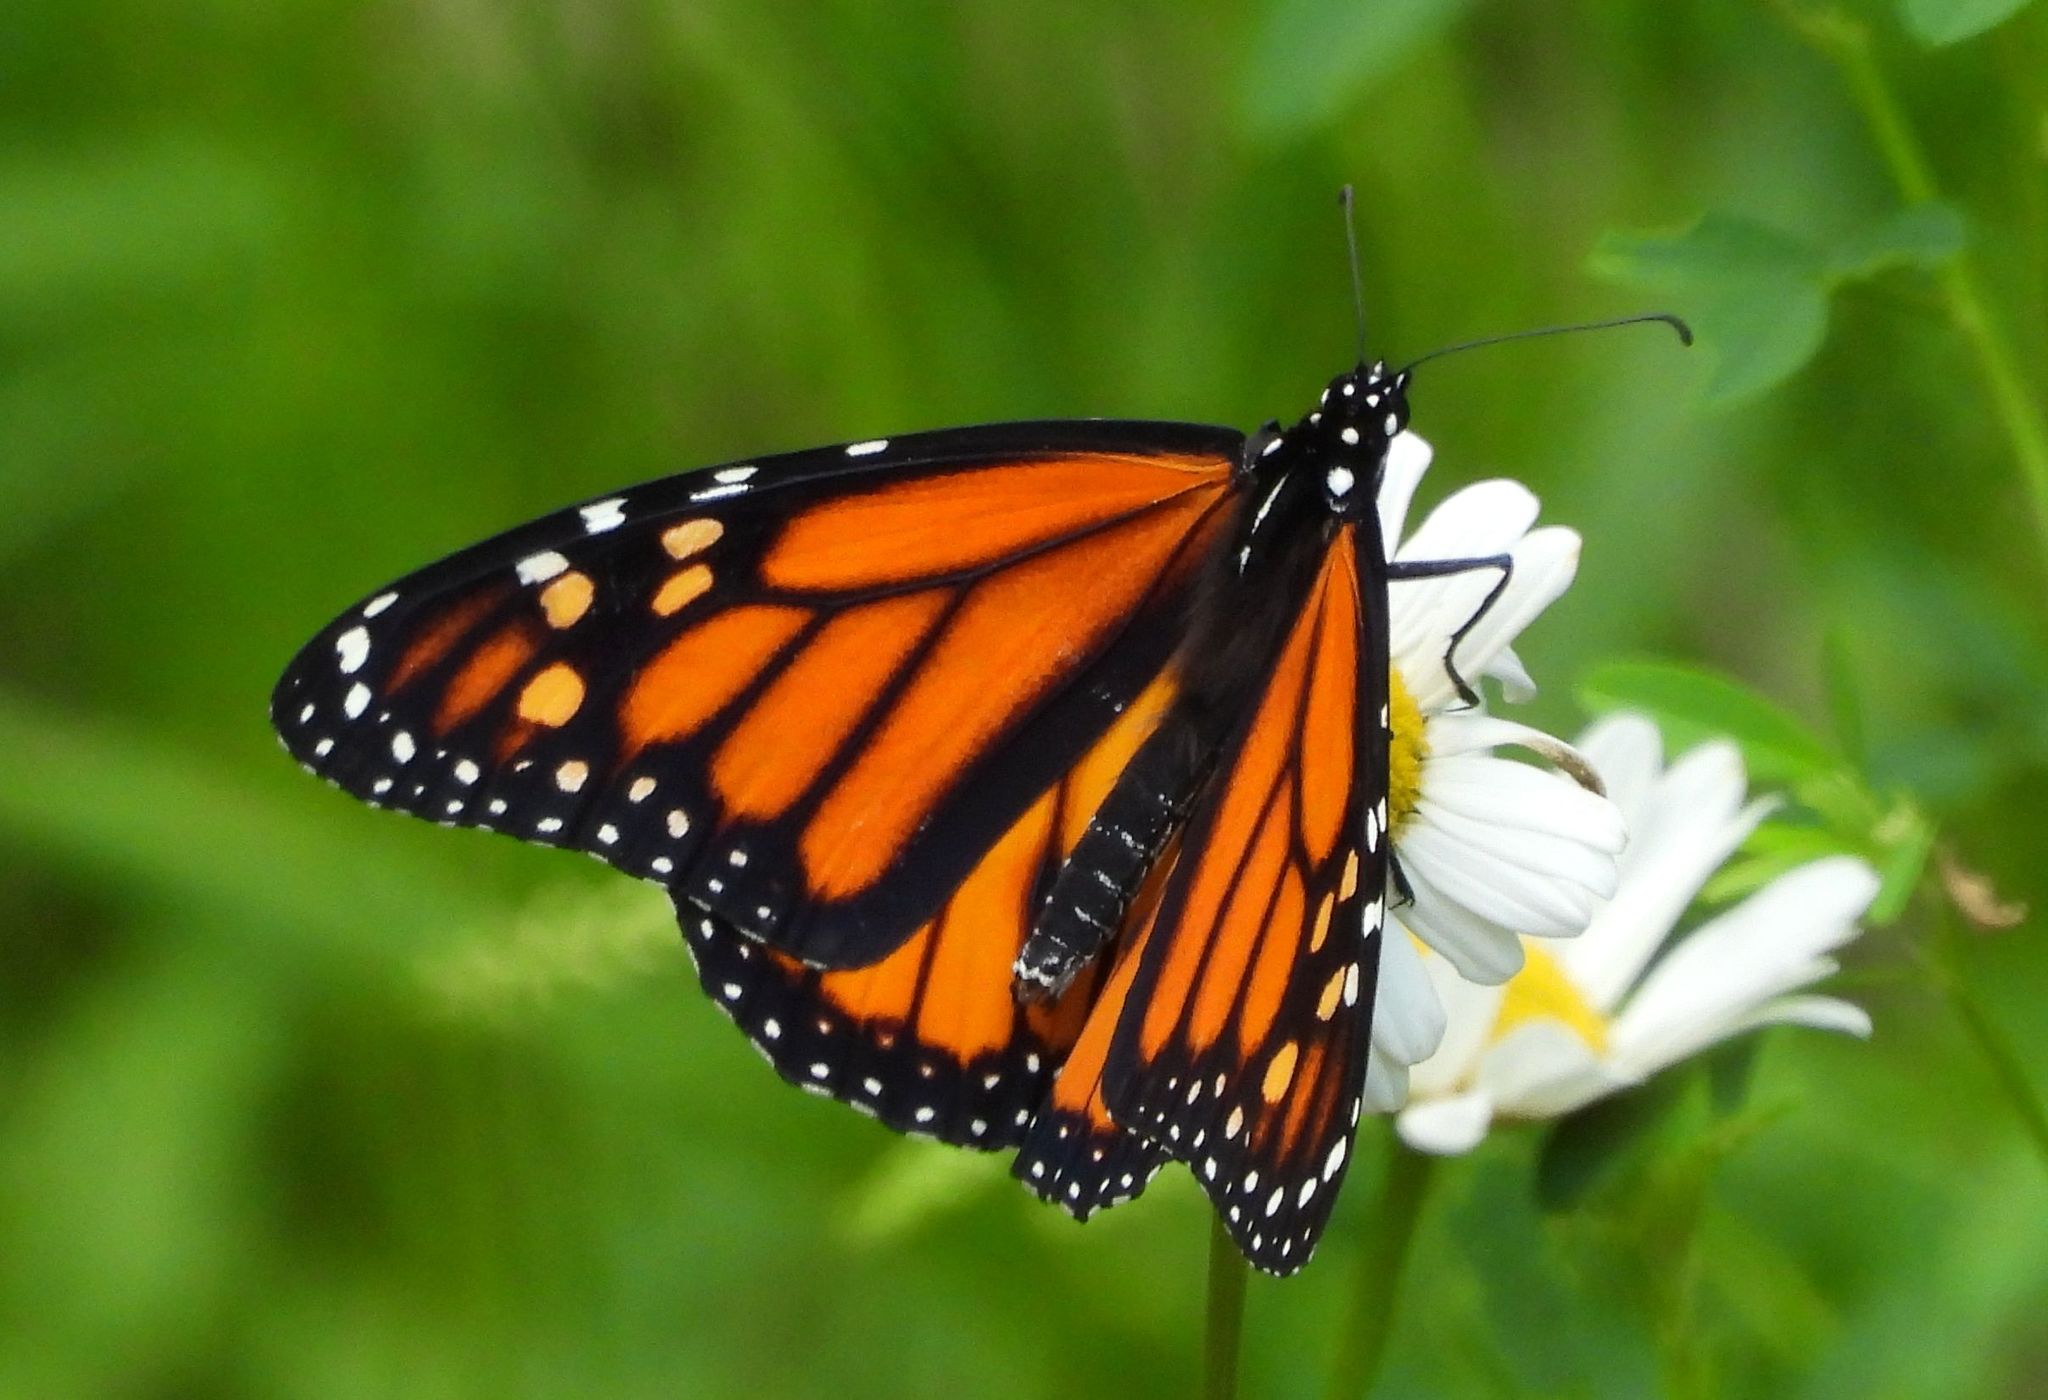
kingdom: Animalia
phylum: Arthropoda
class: Insecta
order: Lepidoptera
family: Nymphalidae
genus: Danaus
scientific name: Danaus plexippus
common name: Monarch
